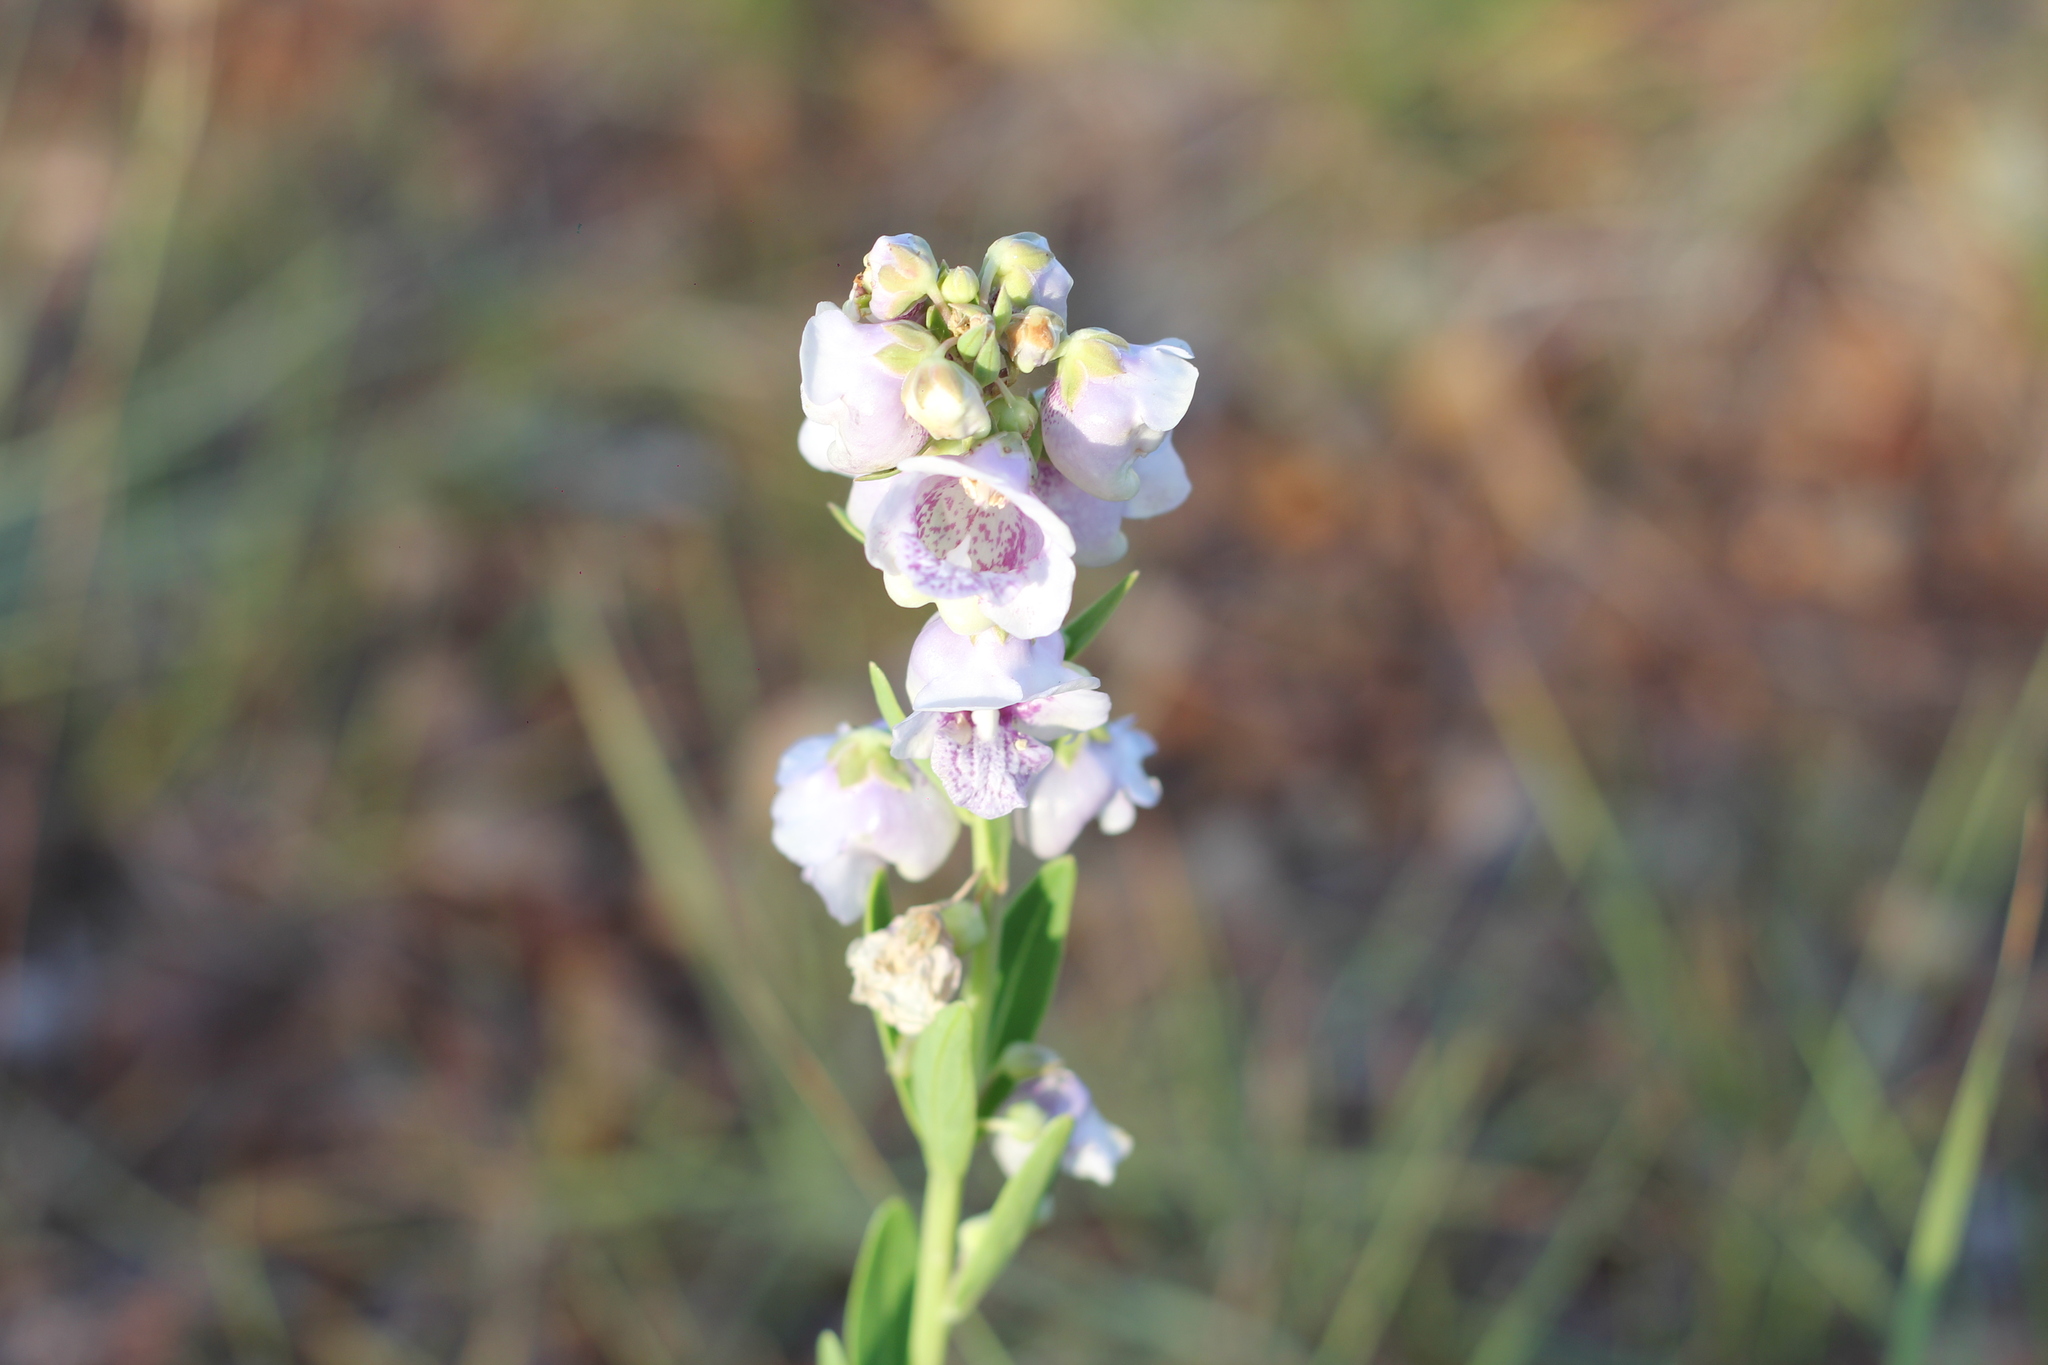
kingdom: Plantae
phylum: Tracheophyta
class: Magnoliopsida
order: Lamiales
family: Plantaginaceae
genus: Angelonia
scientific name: Angelonia integerrima
